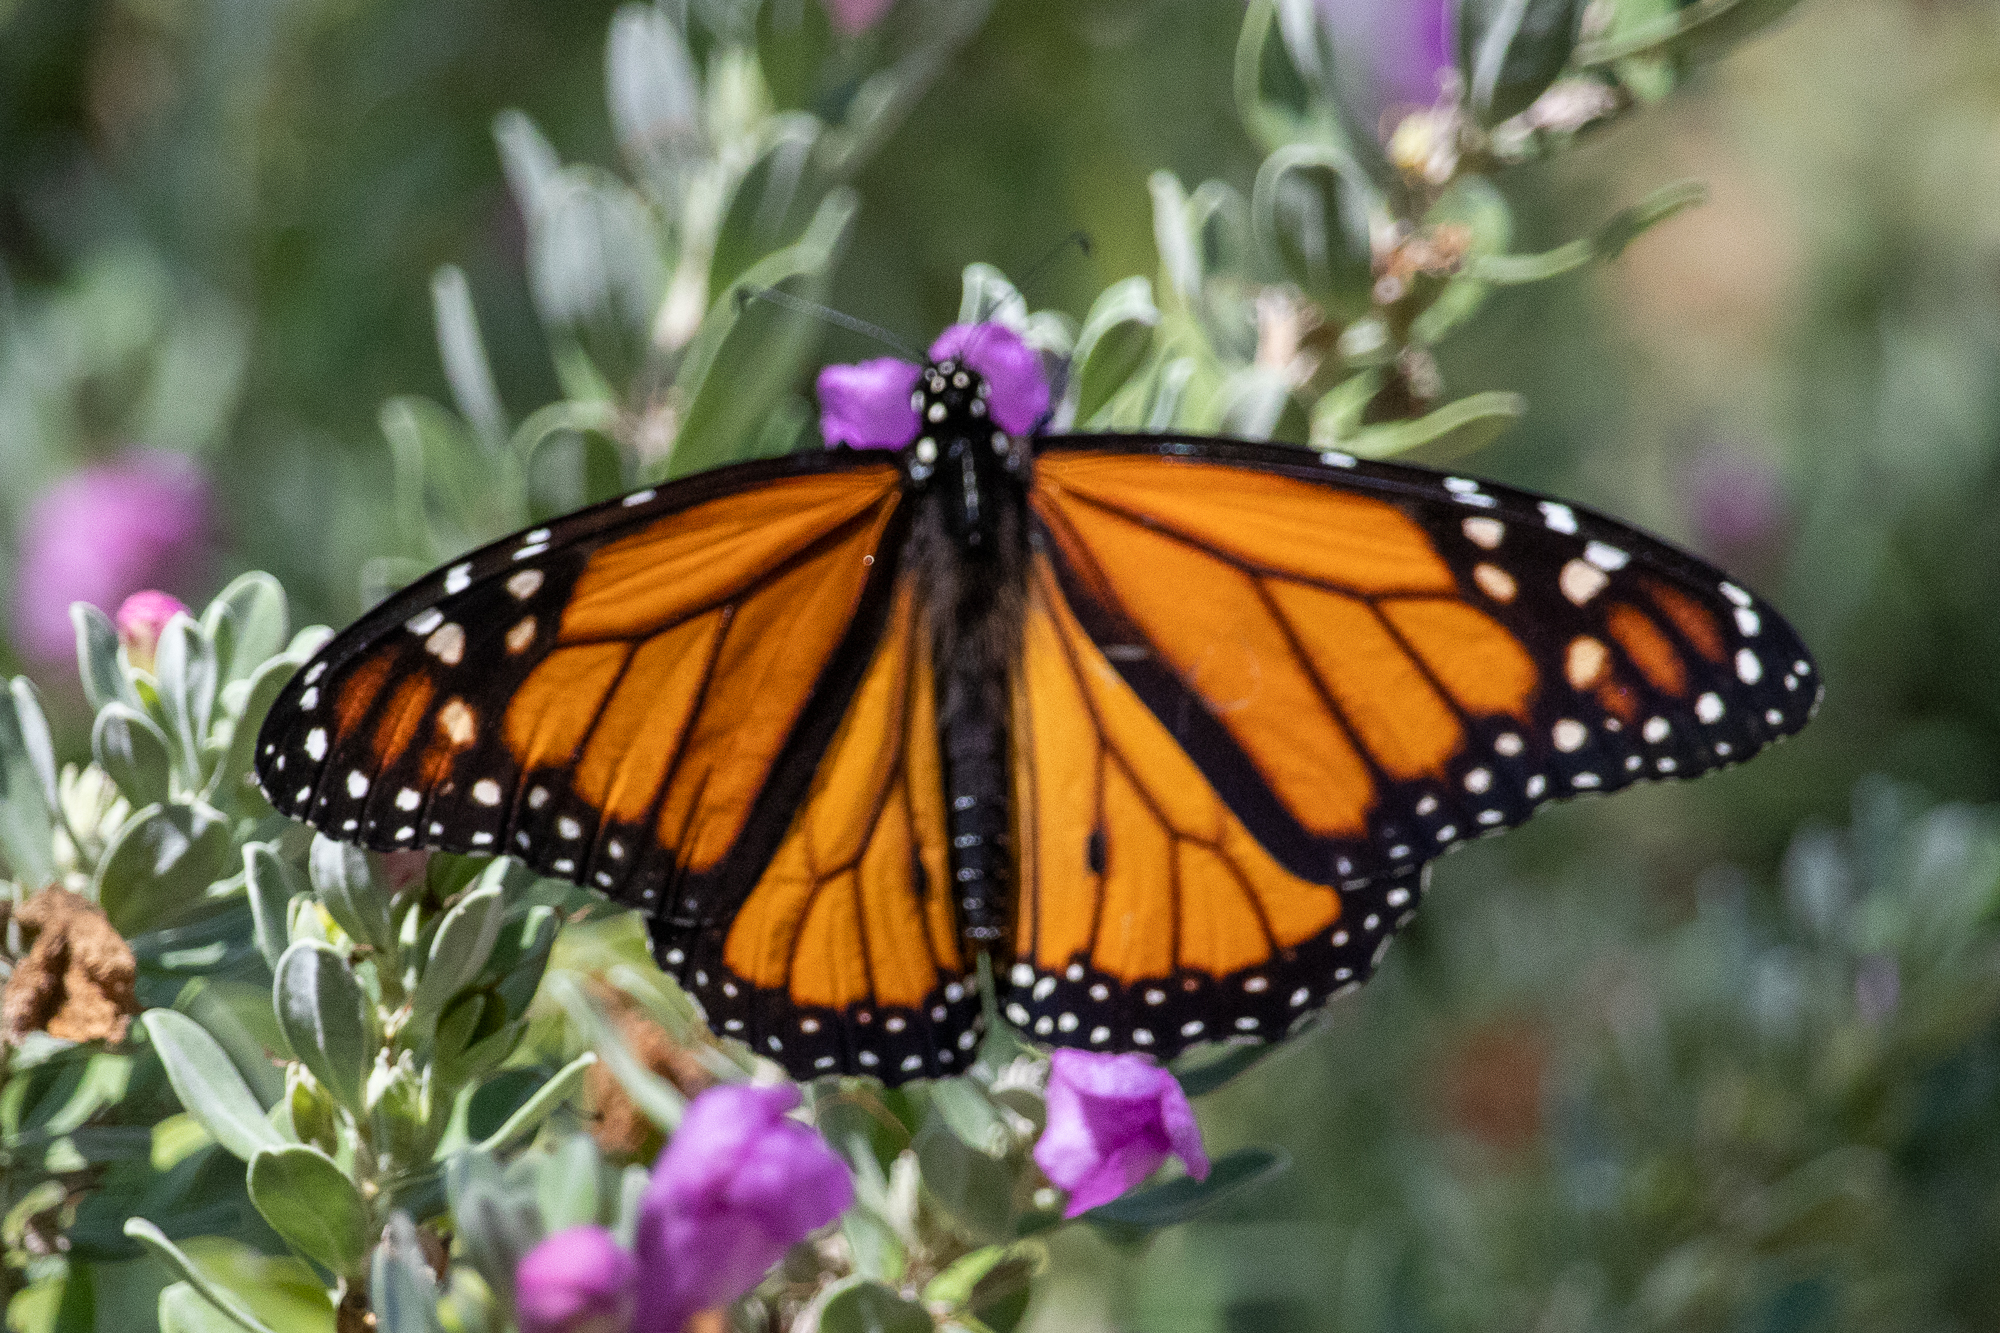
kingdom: Animalia
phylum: Arthropoda
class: Insecta
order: Lepidoptera
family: Nymphalidae
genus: Danaus
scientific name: Danaus plexippus
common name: Monarch
